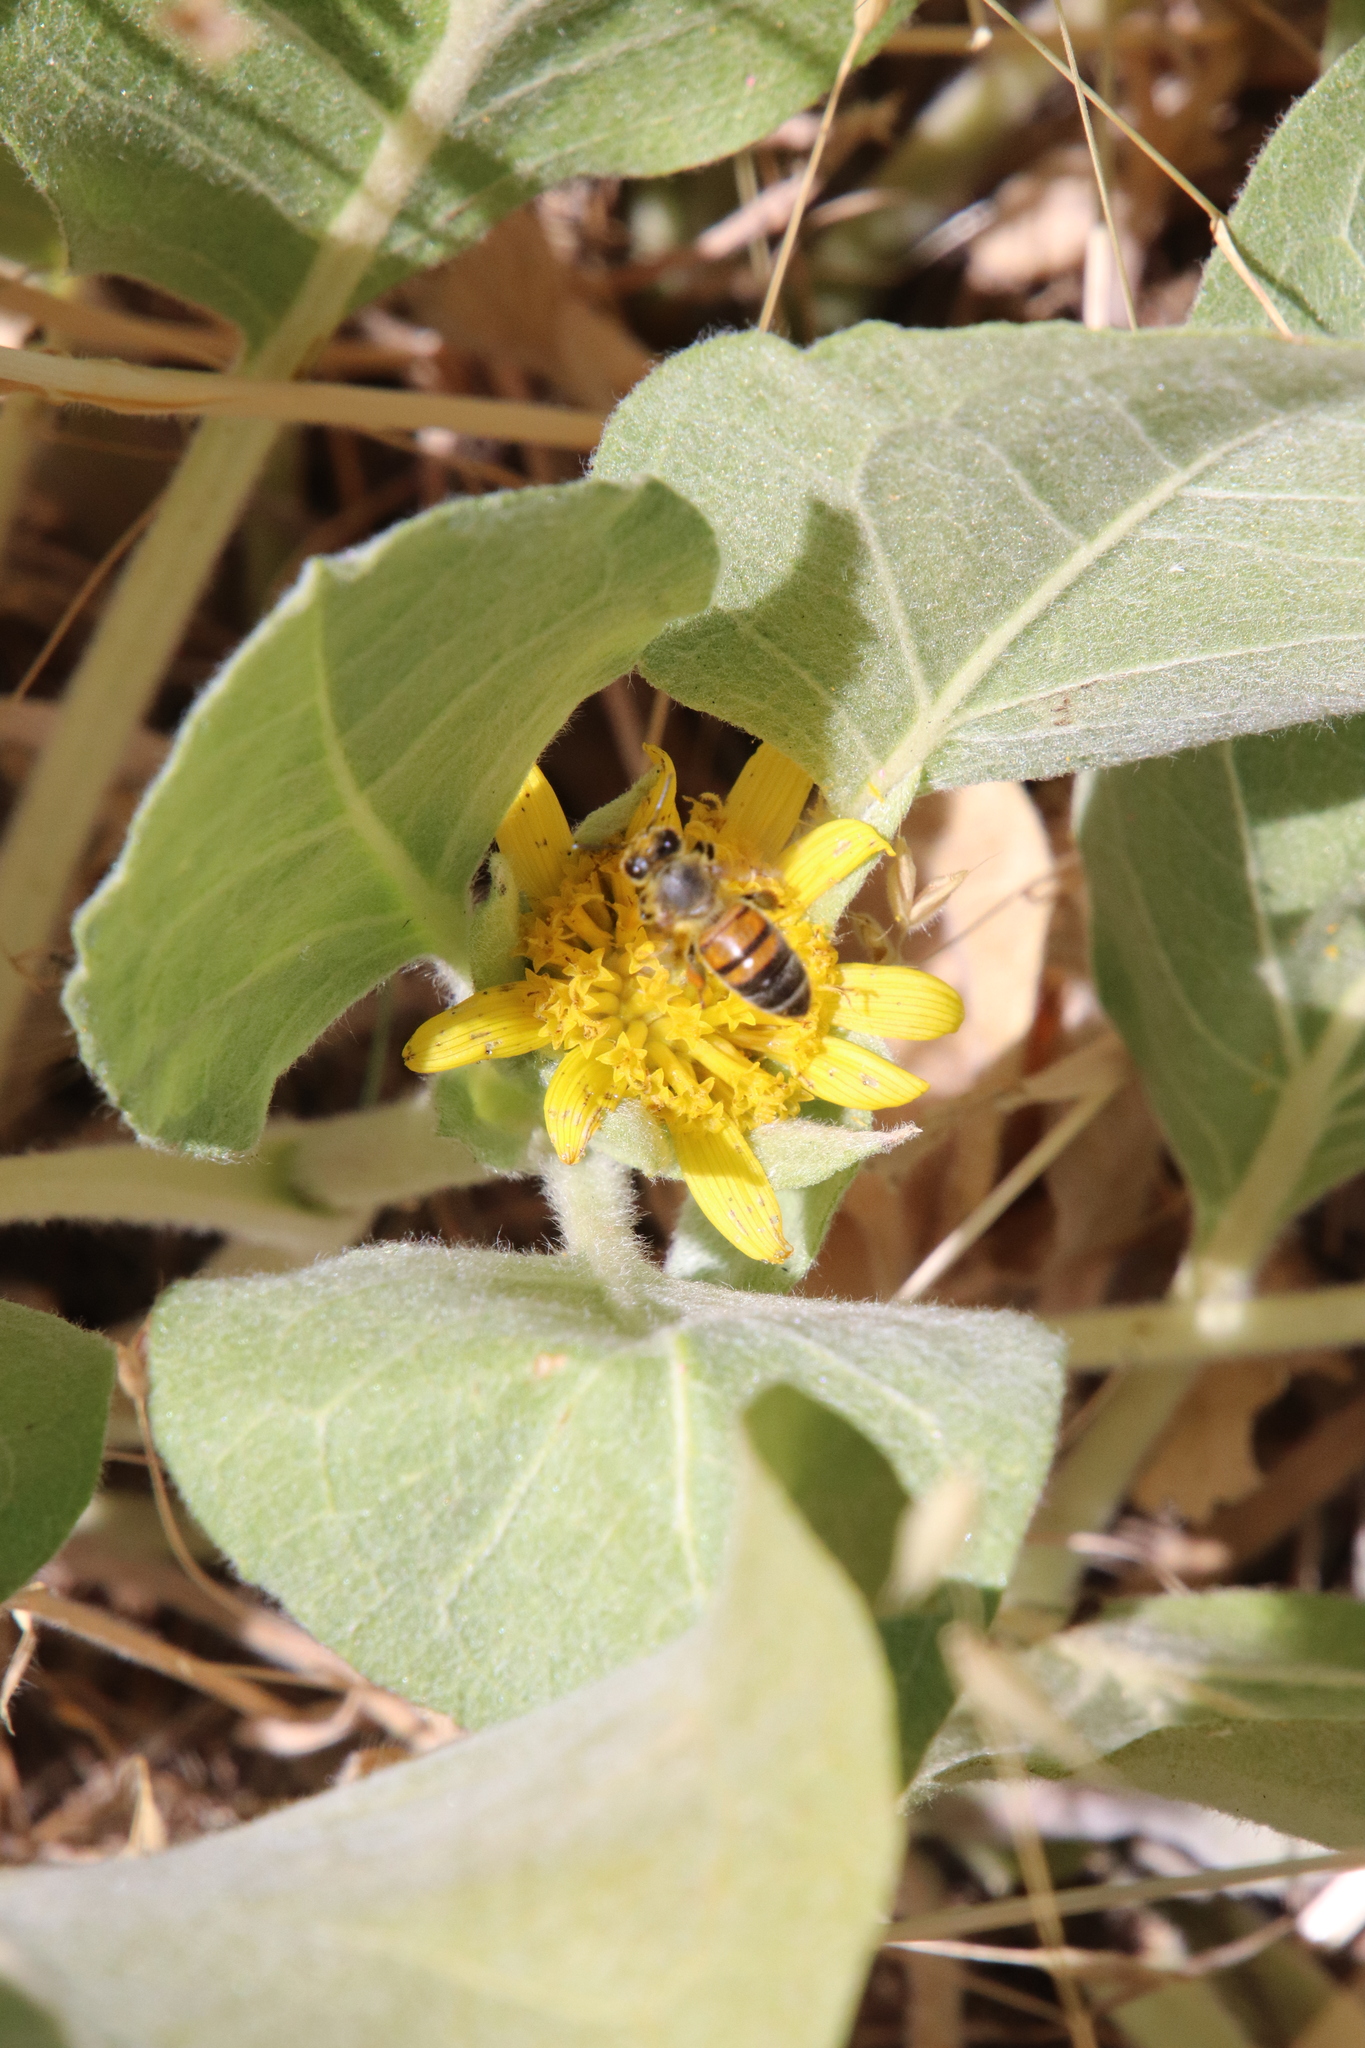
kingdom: Plantae
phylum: Tracheophyta
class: Magnoliopsida
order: Asterales
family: Asteraceae
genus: Agnorhiza
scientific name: Agnorhiza ovata
